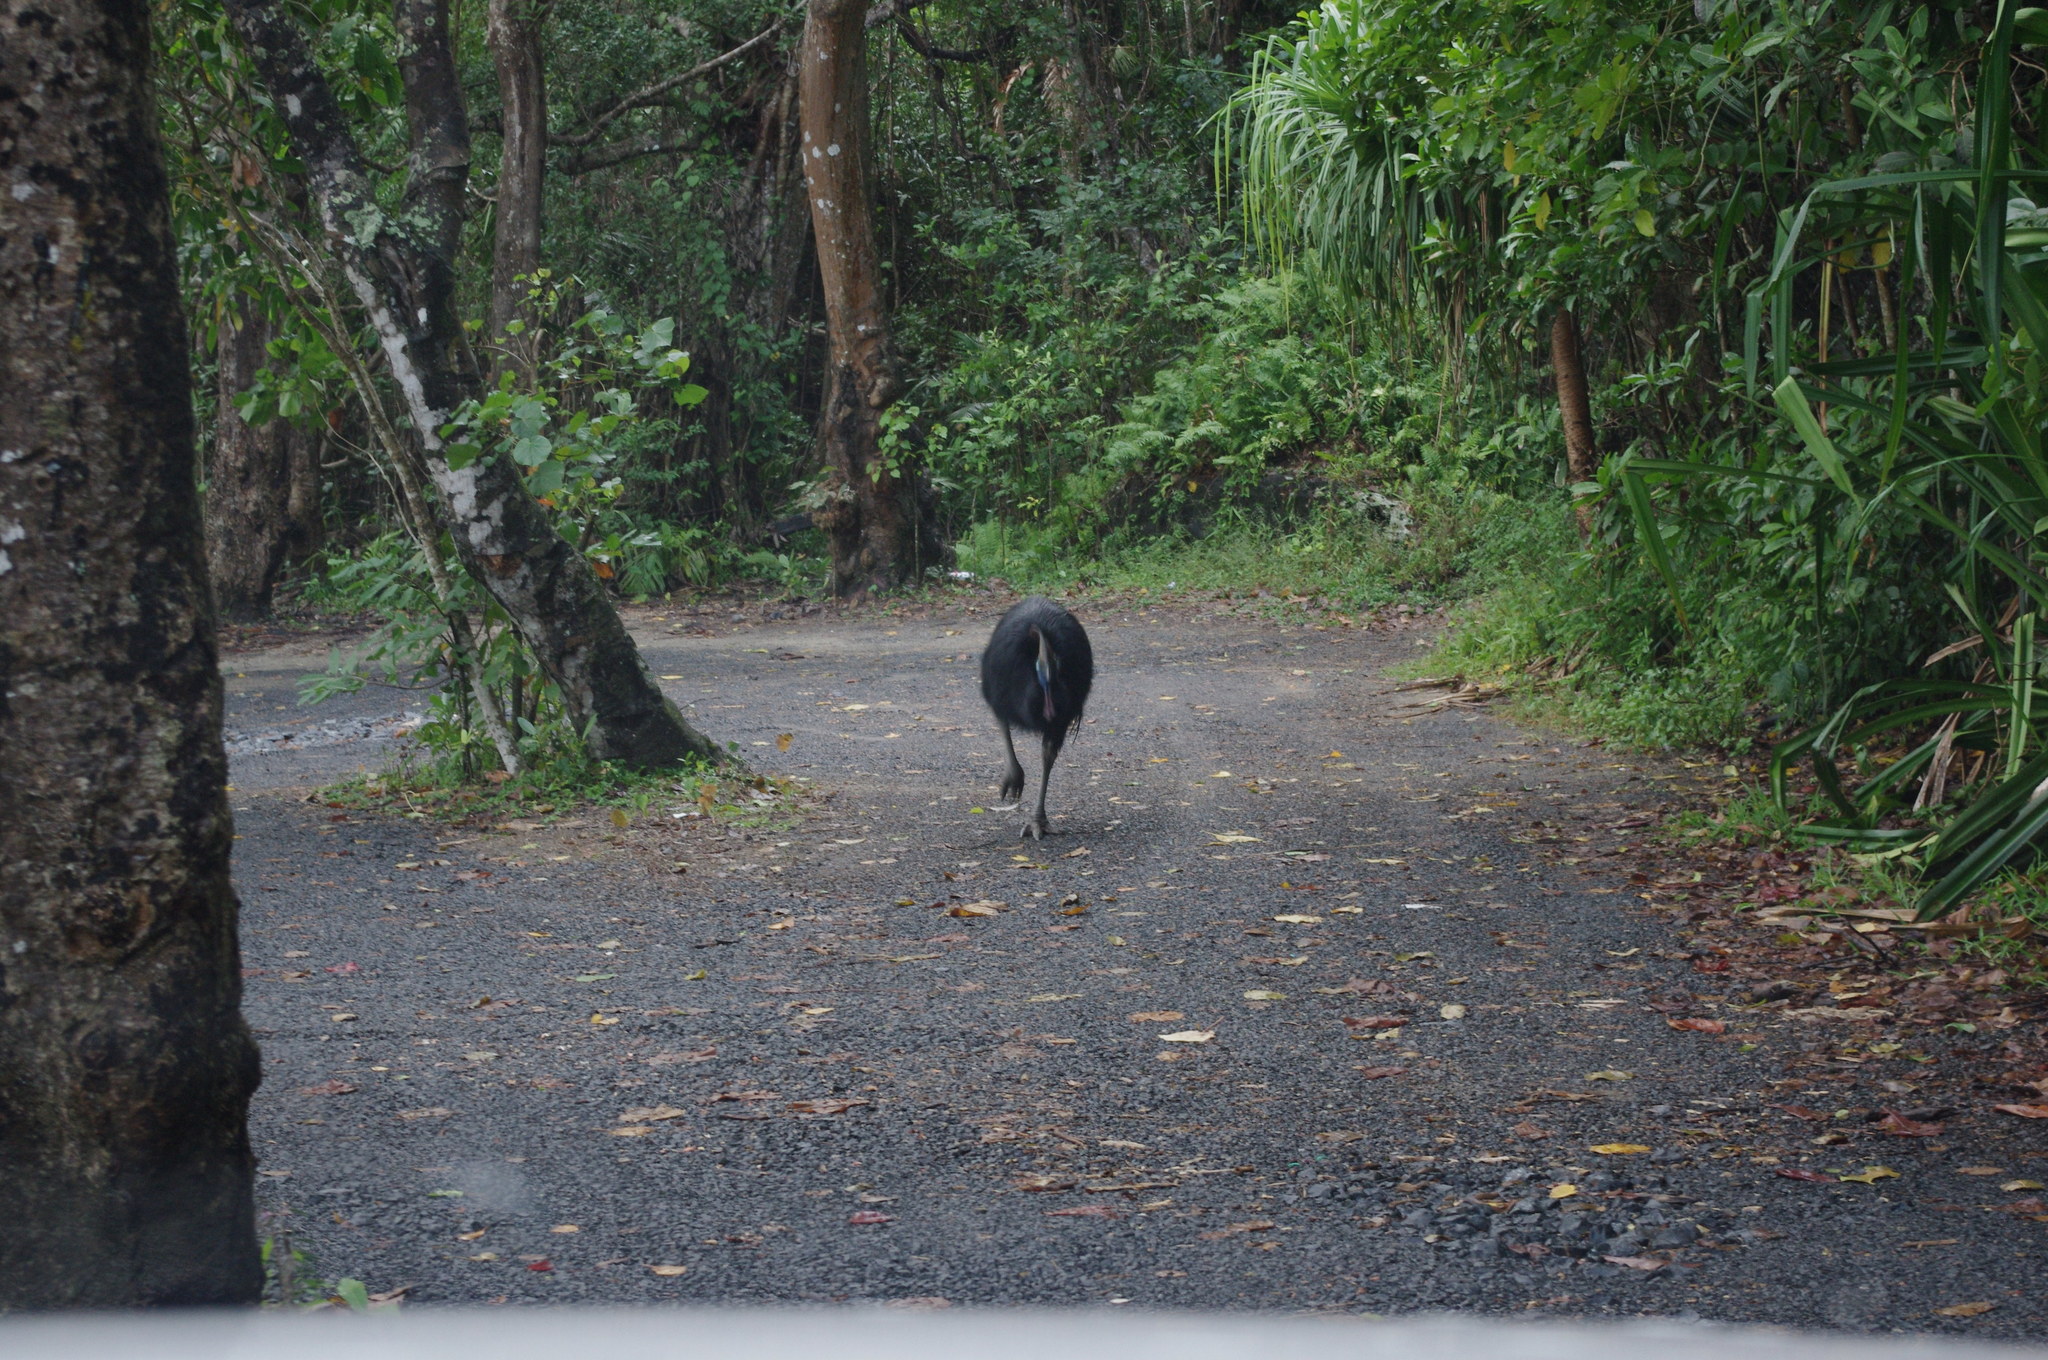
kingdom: Animalia
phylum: Chordata
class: Aves
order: Casuariiformes
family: Casuariidae
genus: Casuarius
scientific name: Casuarius casuarius
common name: Southern cassowary
